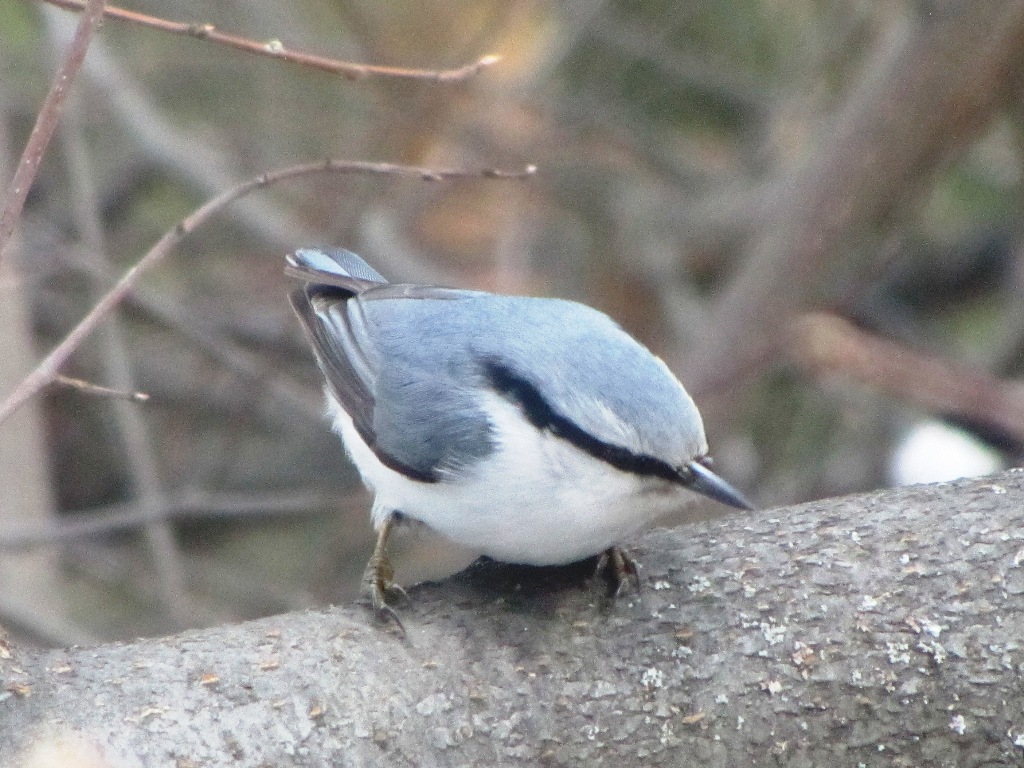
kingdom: Animalia
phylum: Chordata
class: Aves
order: Passeriformes
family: Sittidae
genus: Sitta
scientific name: Sitta europaea
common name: Eurasian nuthatch
